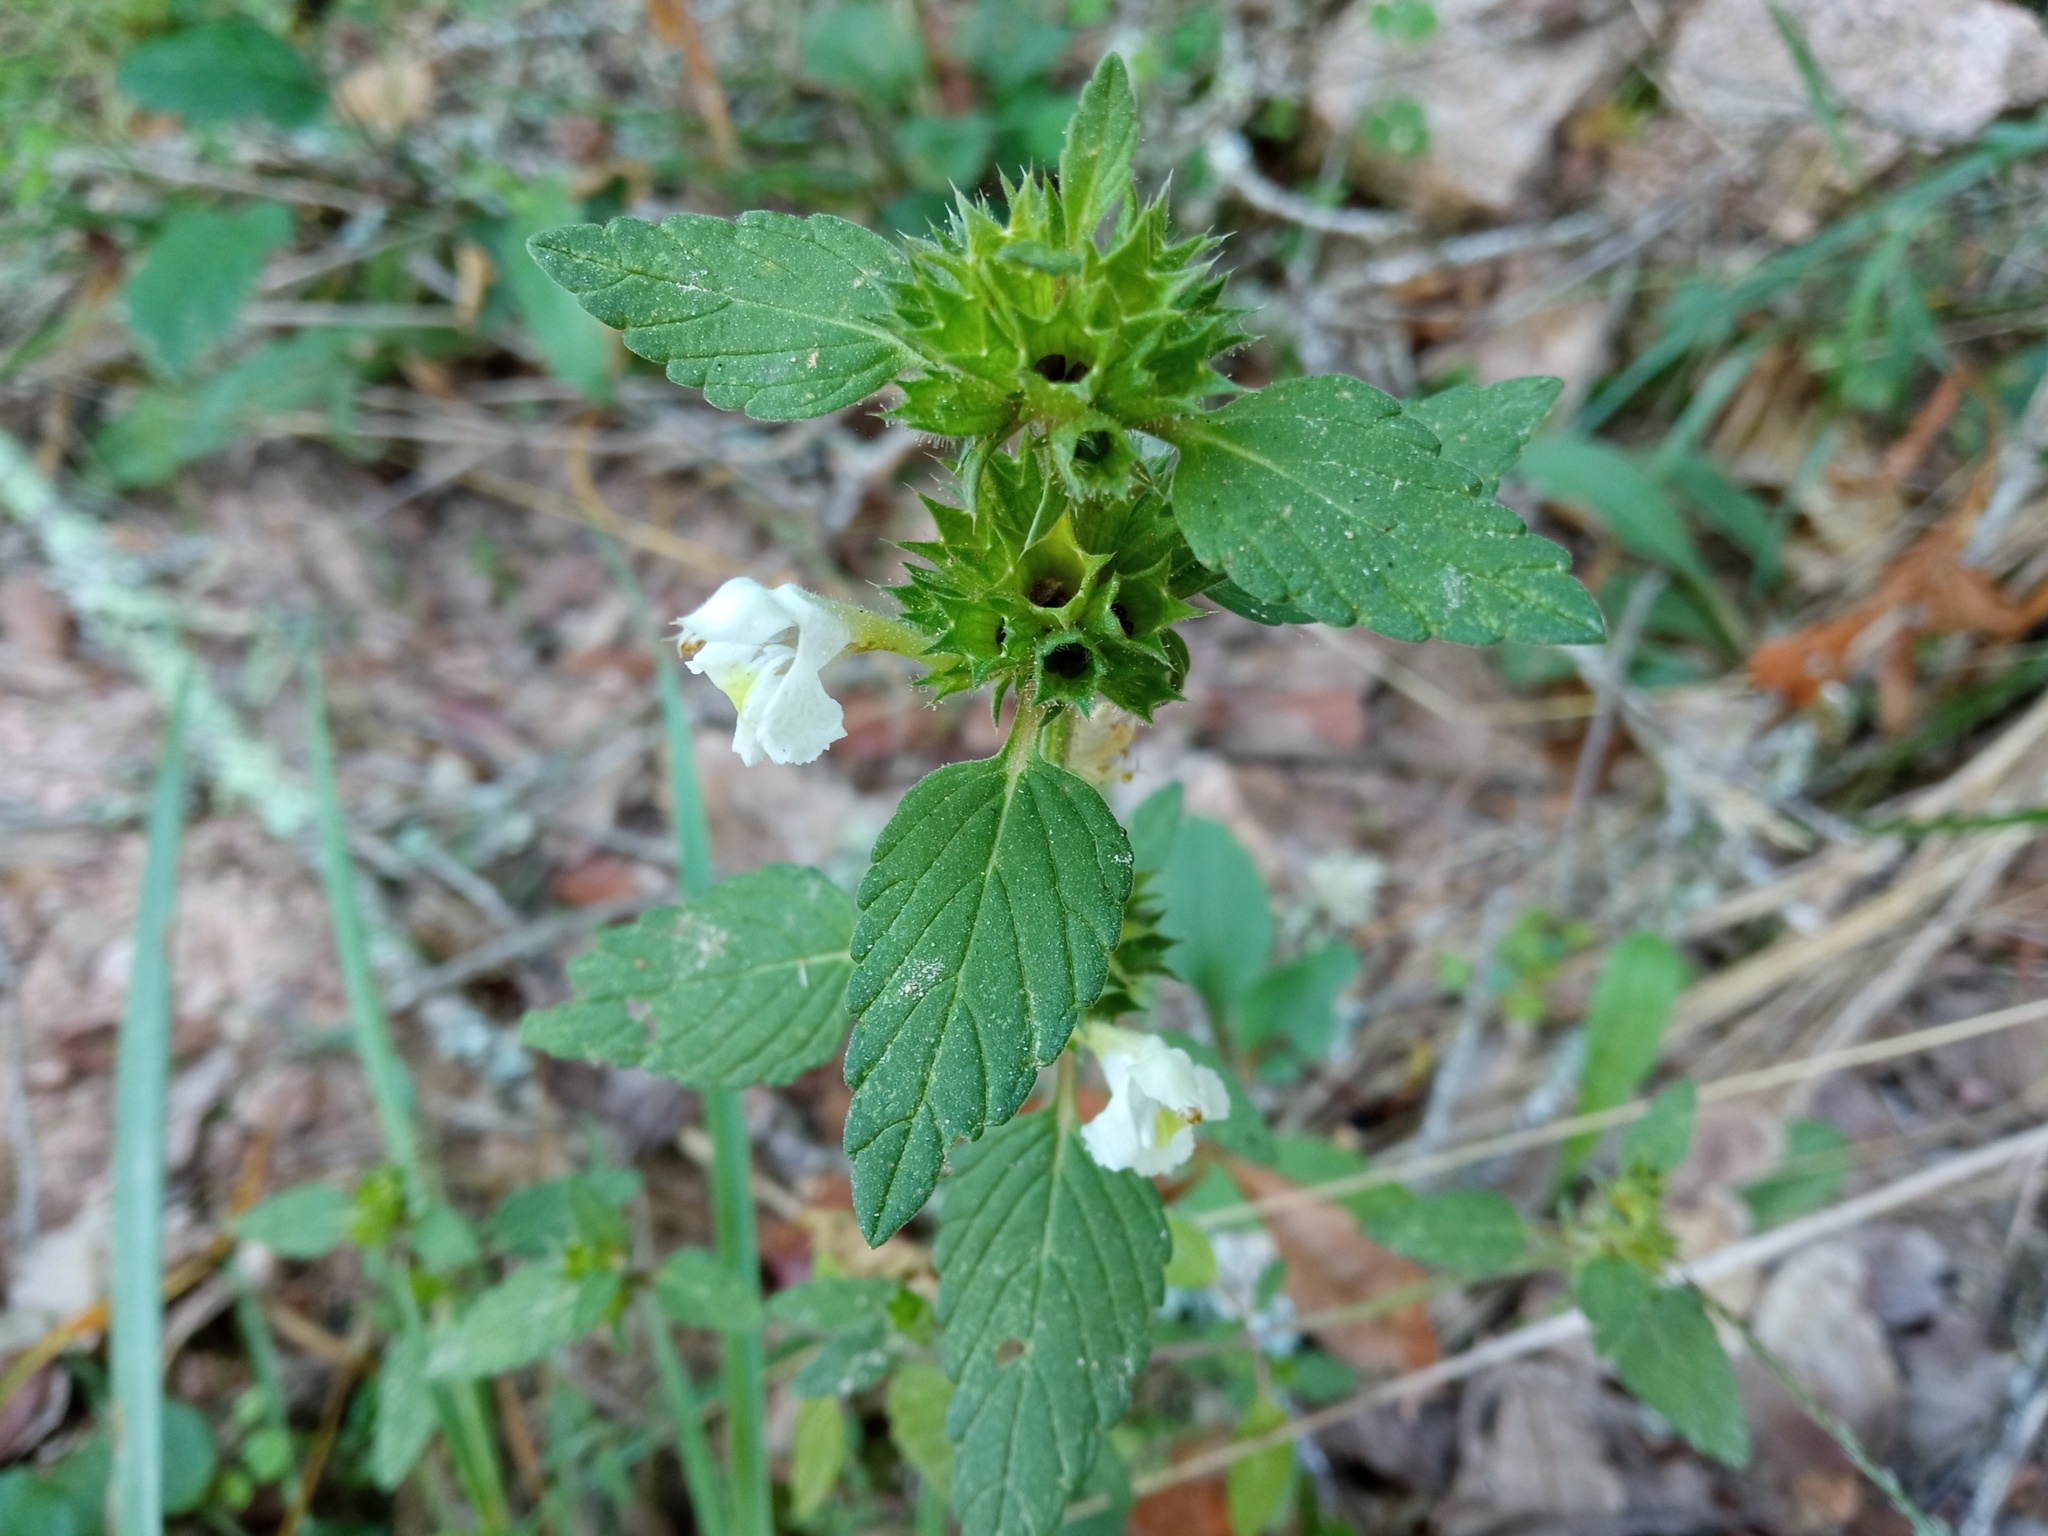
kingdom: Plantae
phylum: Tracheophyta
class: Magnoliopsida
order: Lamiales
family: Lamiaceae
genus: Galeopsis
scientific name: Galeopsis segetum
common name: Downy hemp-nettle
